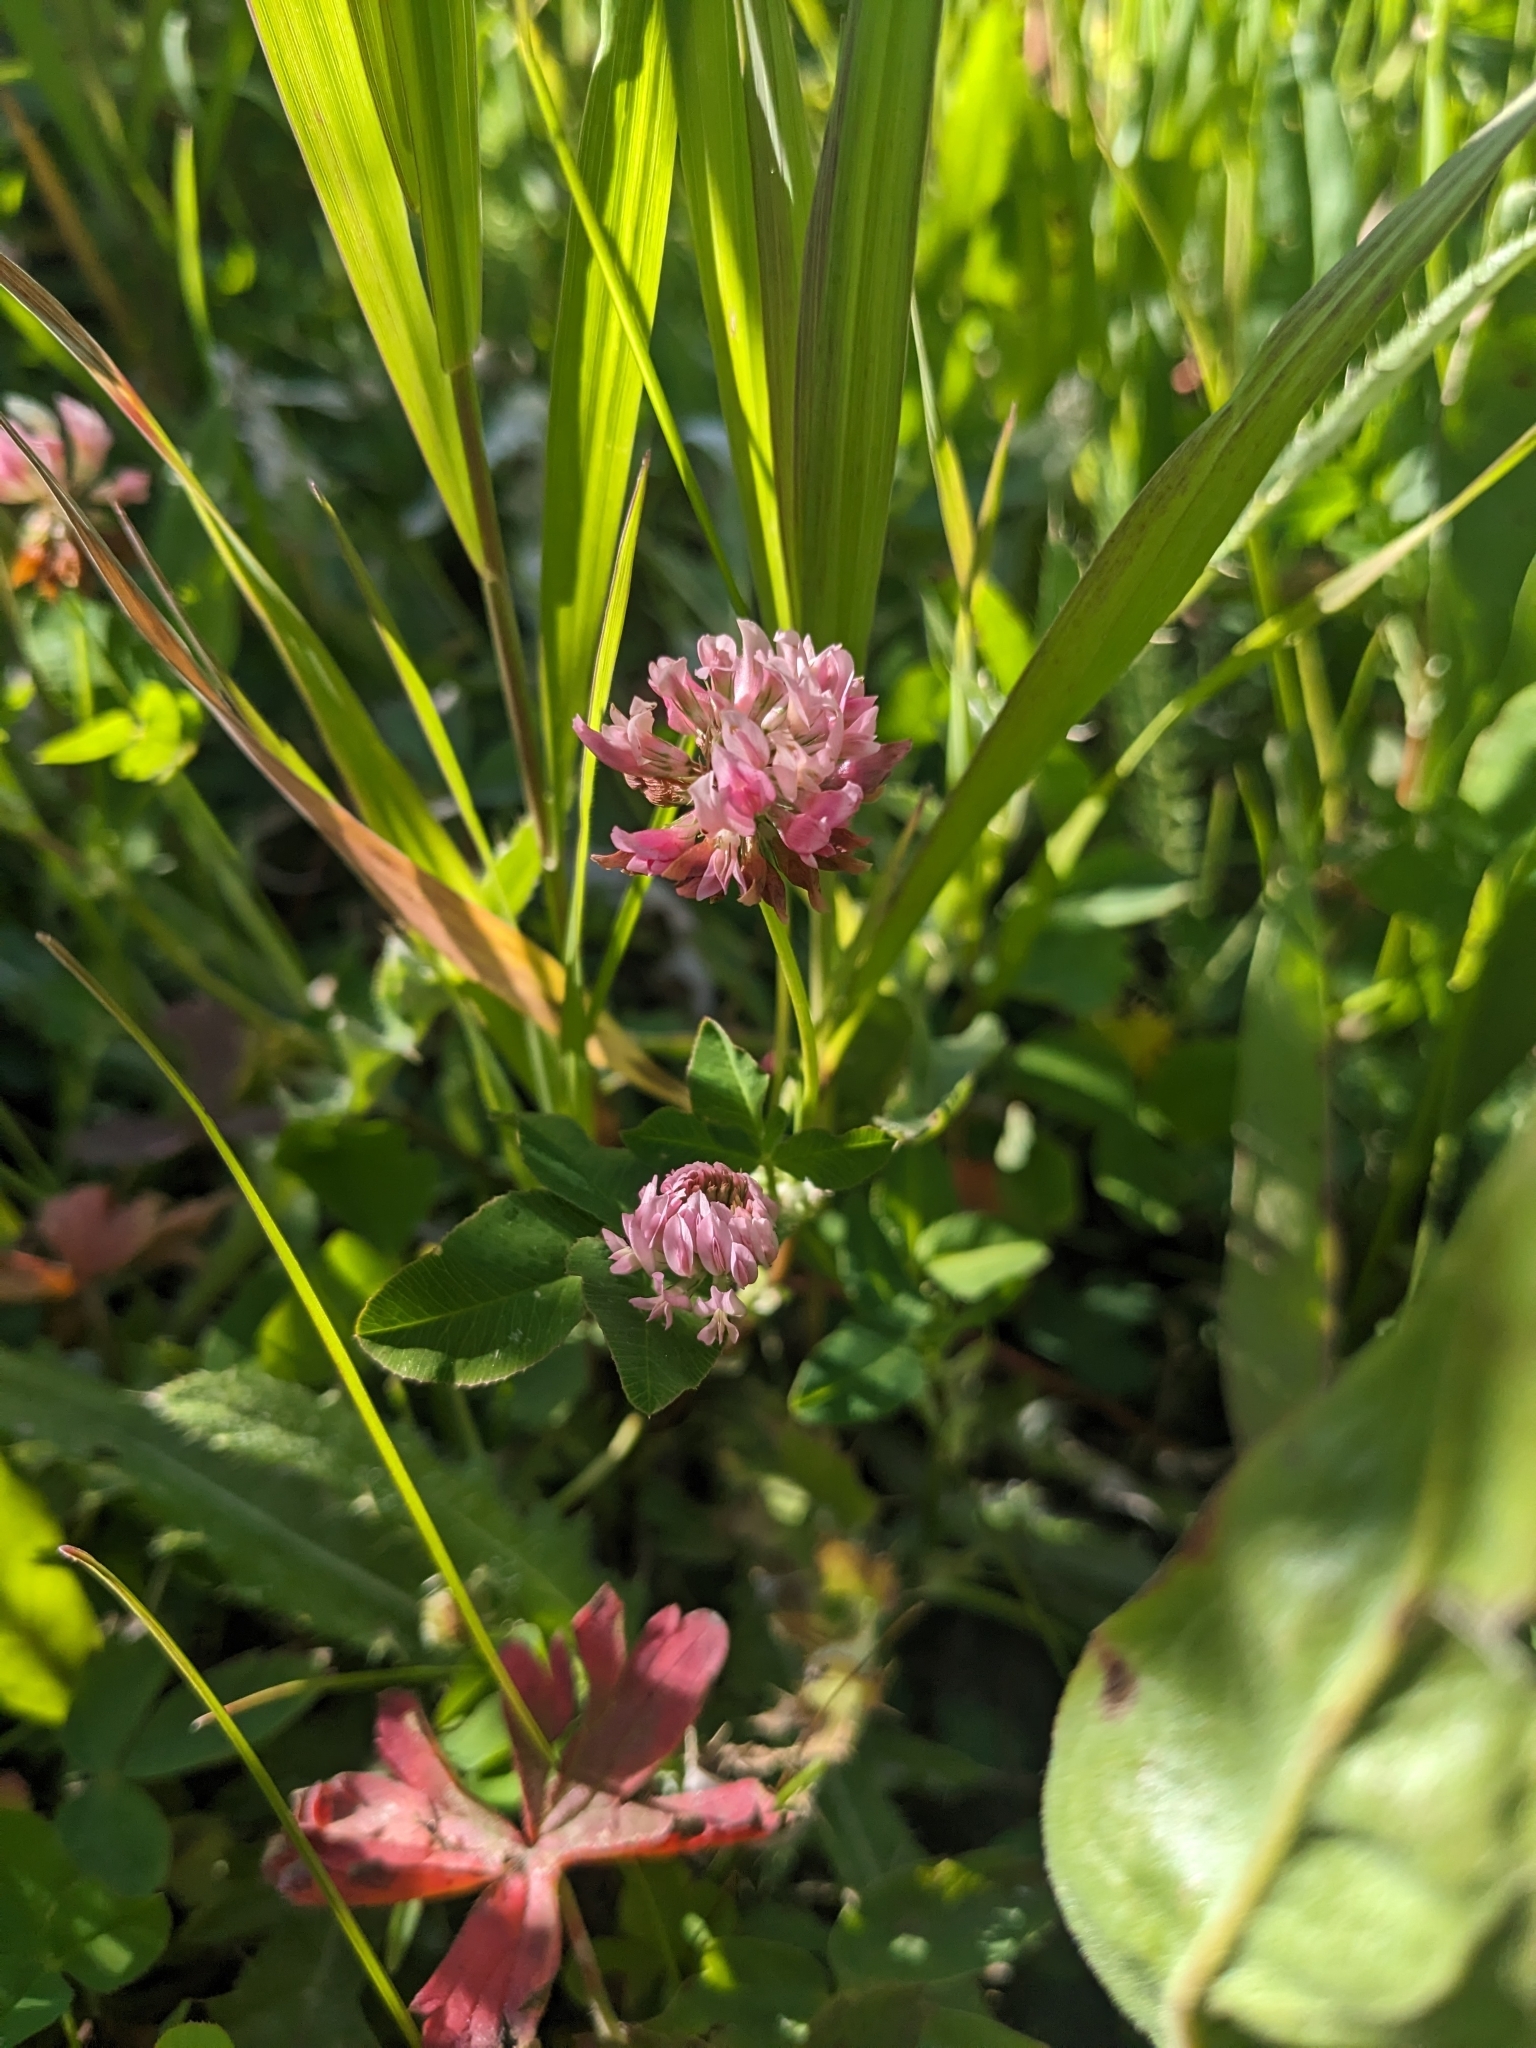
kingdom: Plantae
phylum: Tracheophyta
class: Magnoliopsida
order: Fabales
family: Fabaceae
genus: Trifolium
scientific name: Trifolium hybridum
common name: Alsike clover
